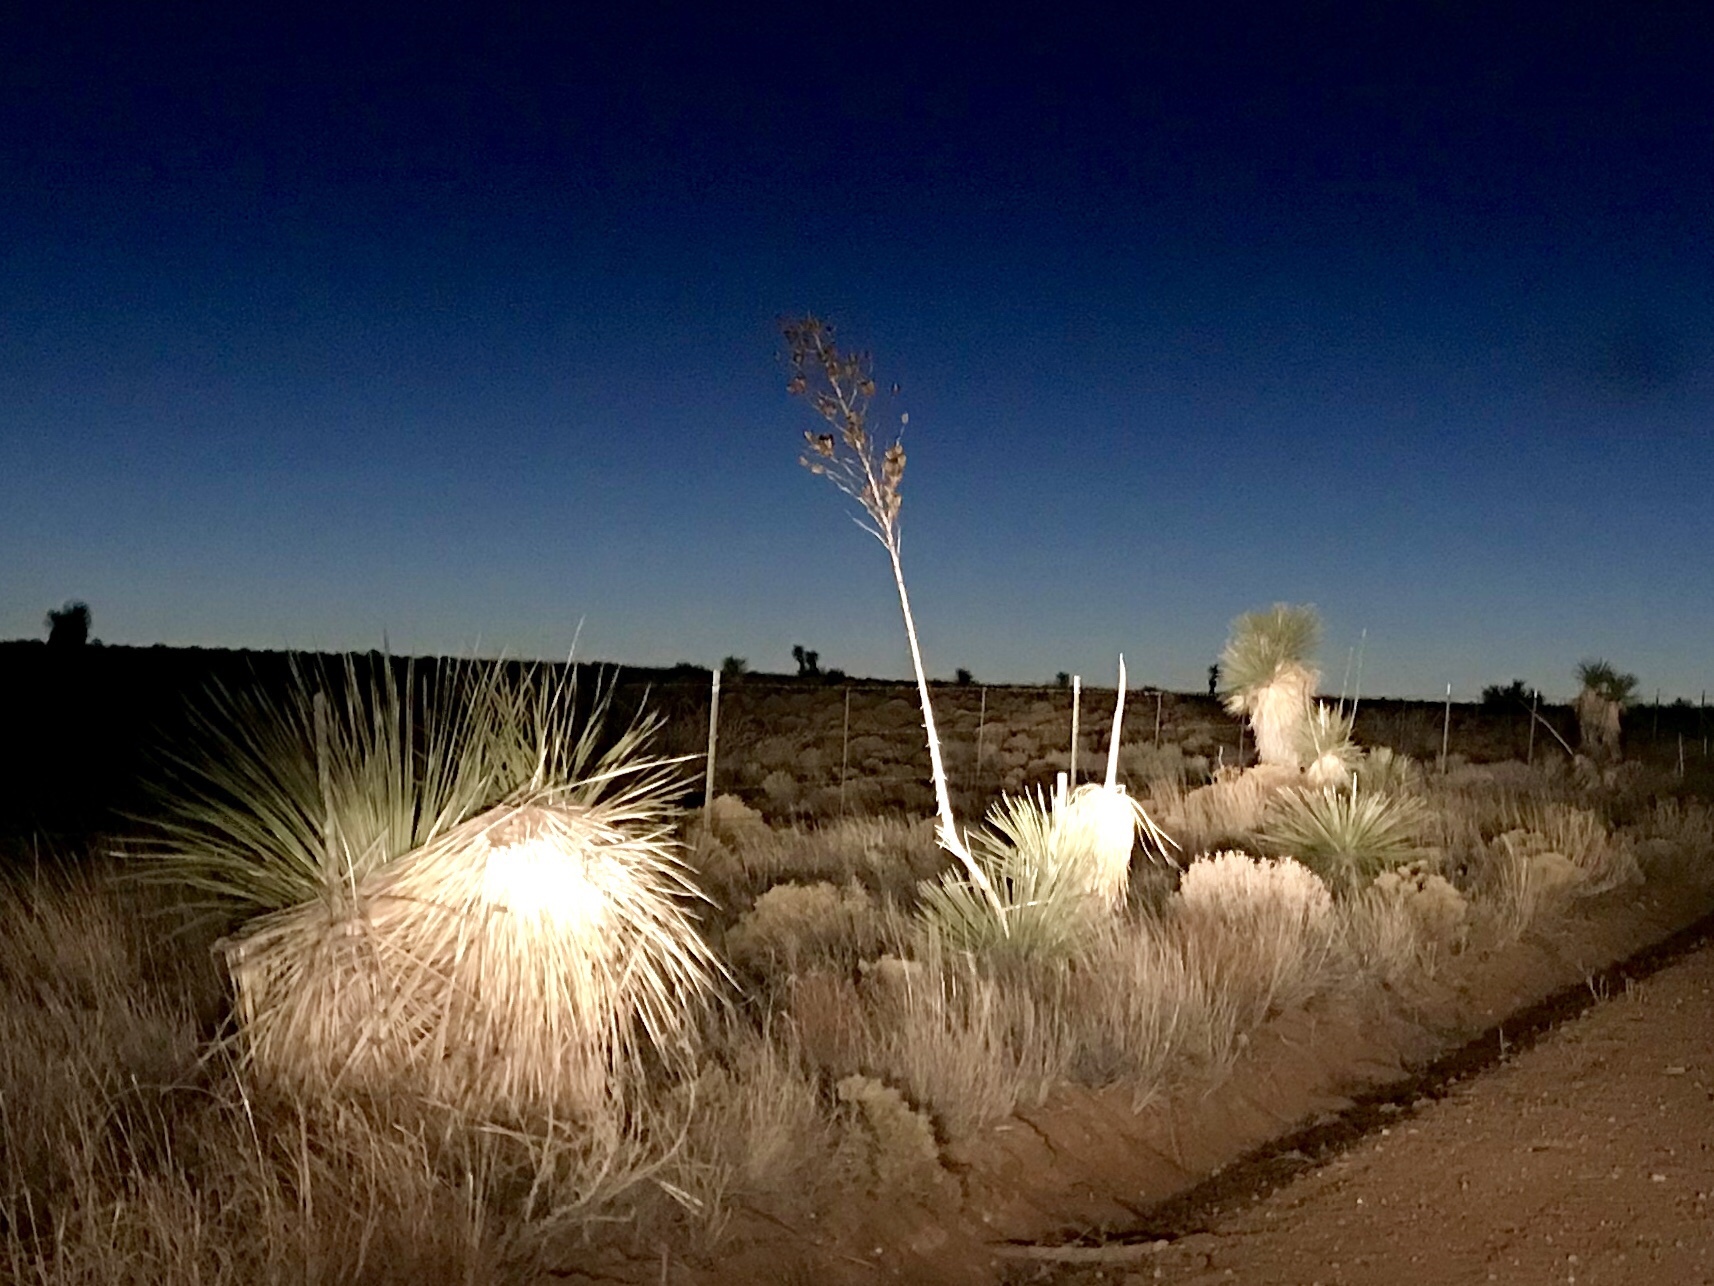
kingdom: Plantae
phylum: Tracheophyta
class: Liliopsida
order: Asparagales
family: Asparagaceae
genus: Yucca
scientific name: Yucca elata
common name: Palmella
